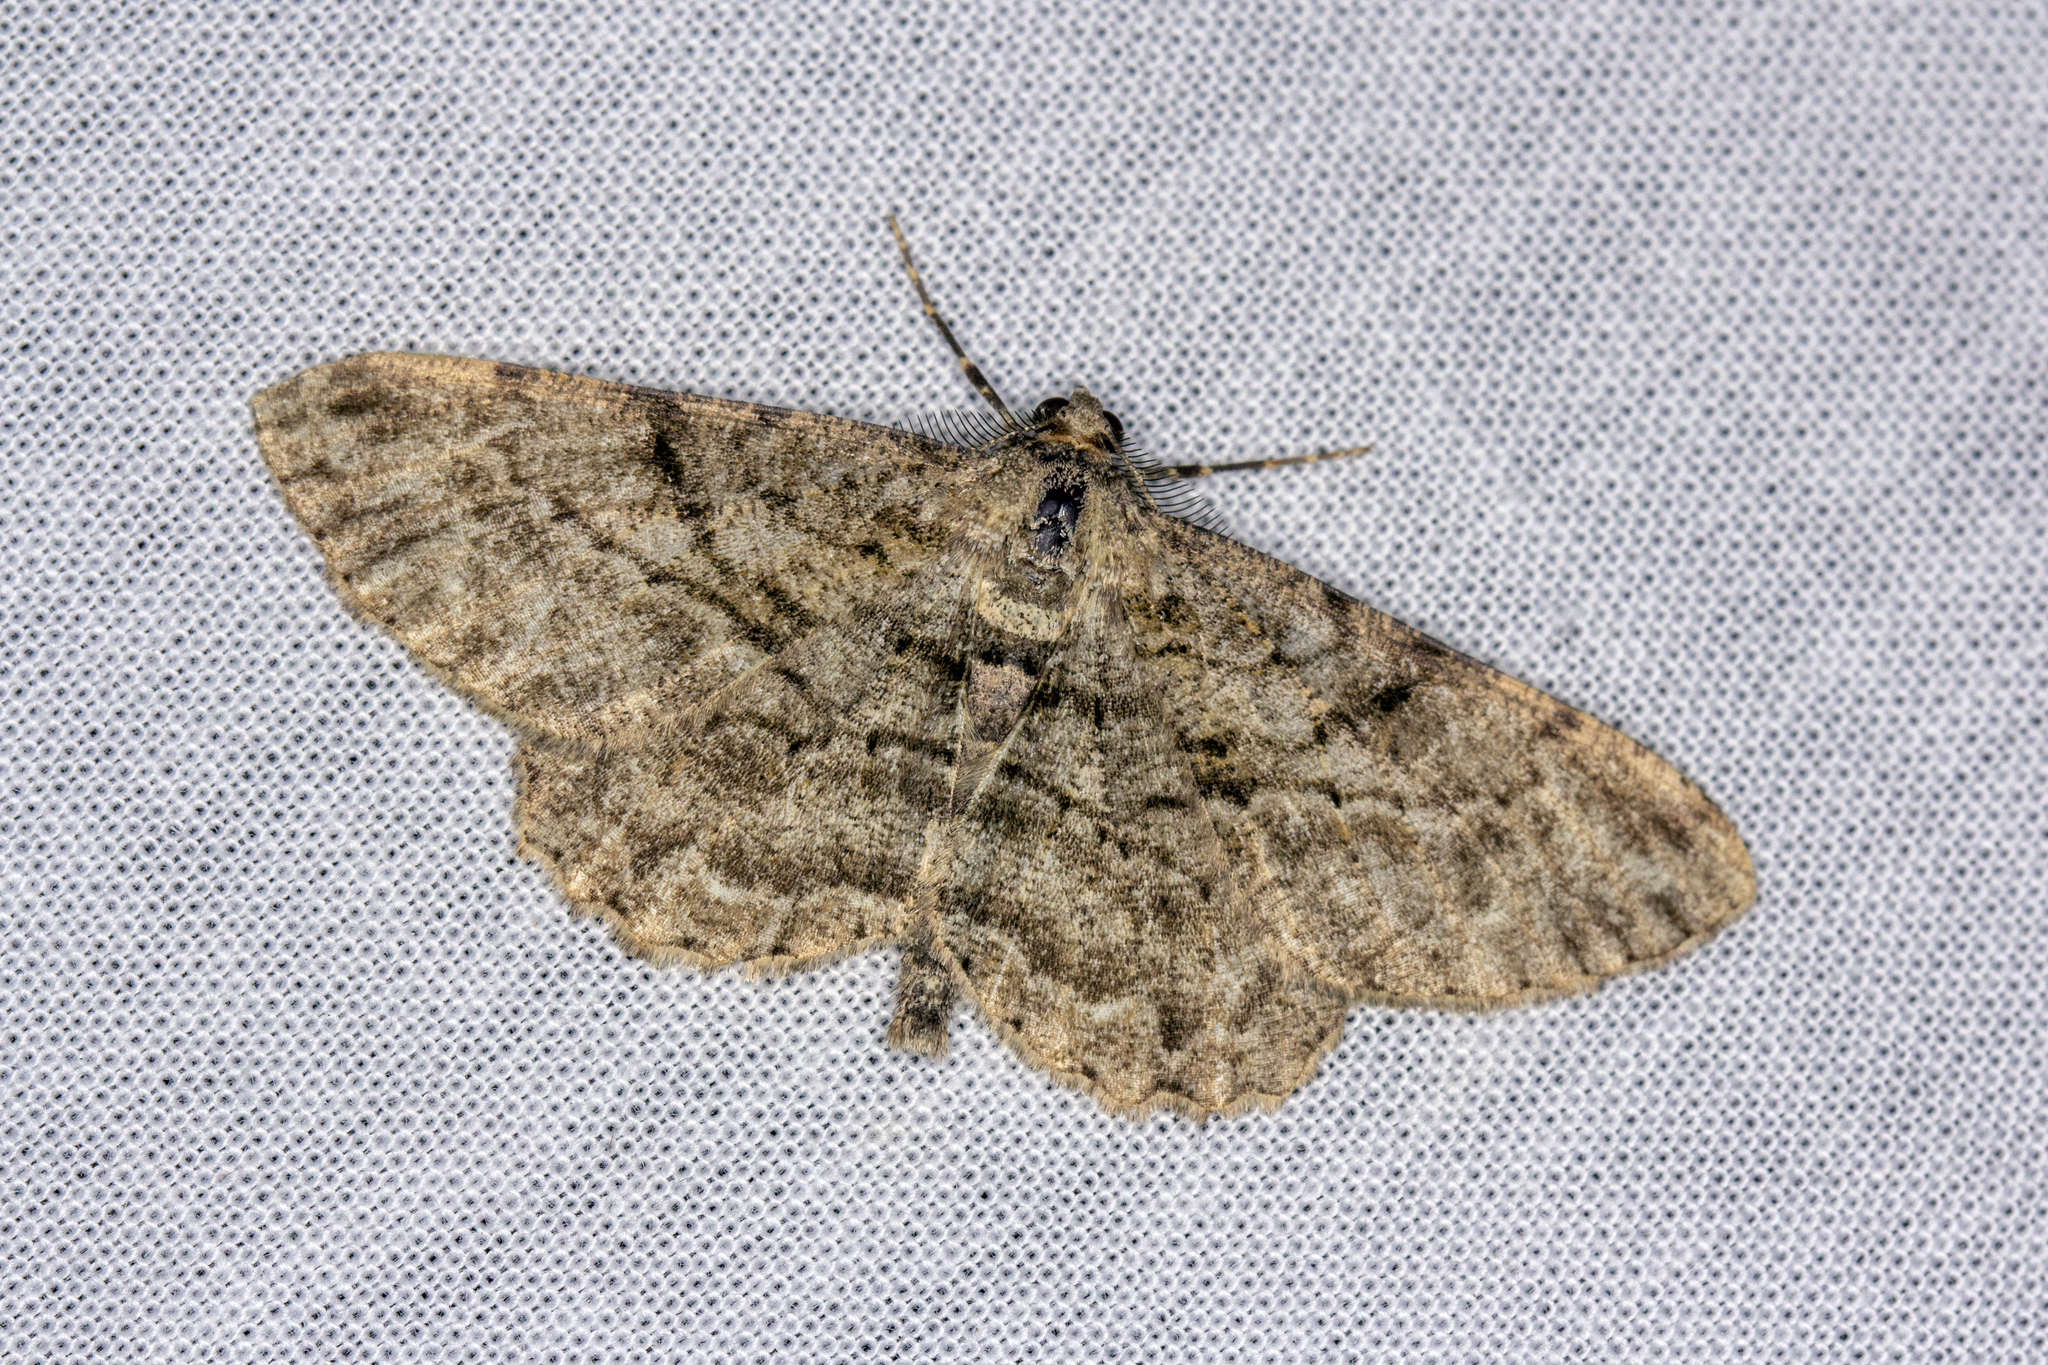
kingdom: Animalia
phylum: Arthropoda
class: Insecta
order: Lepidoptera
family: Geometridae
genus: Peribatodes
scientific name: Peribatodes rhomboidaria
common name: Willow beauty
